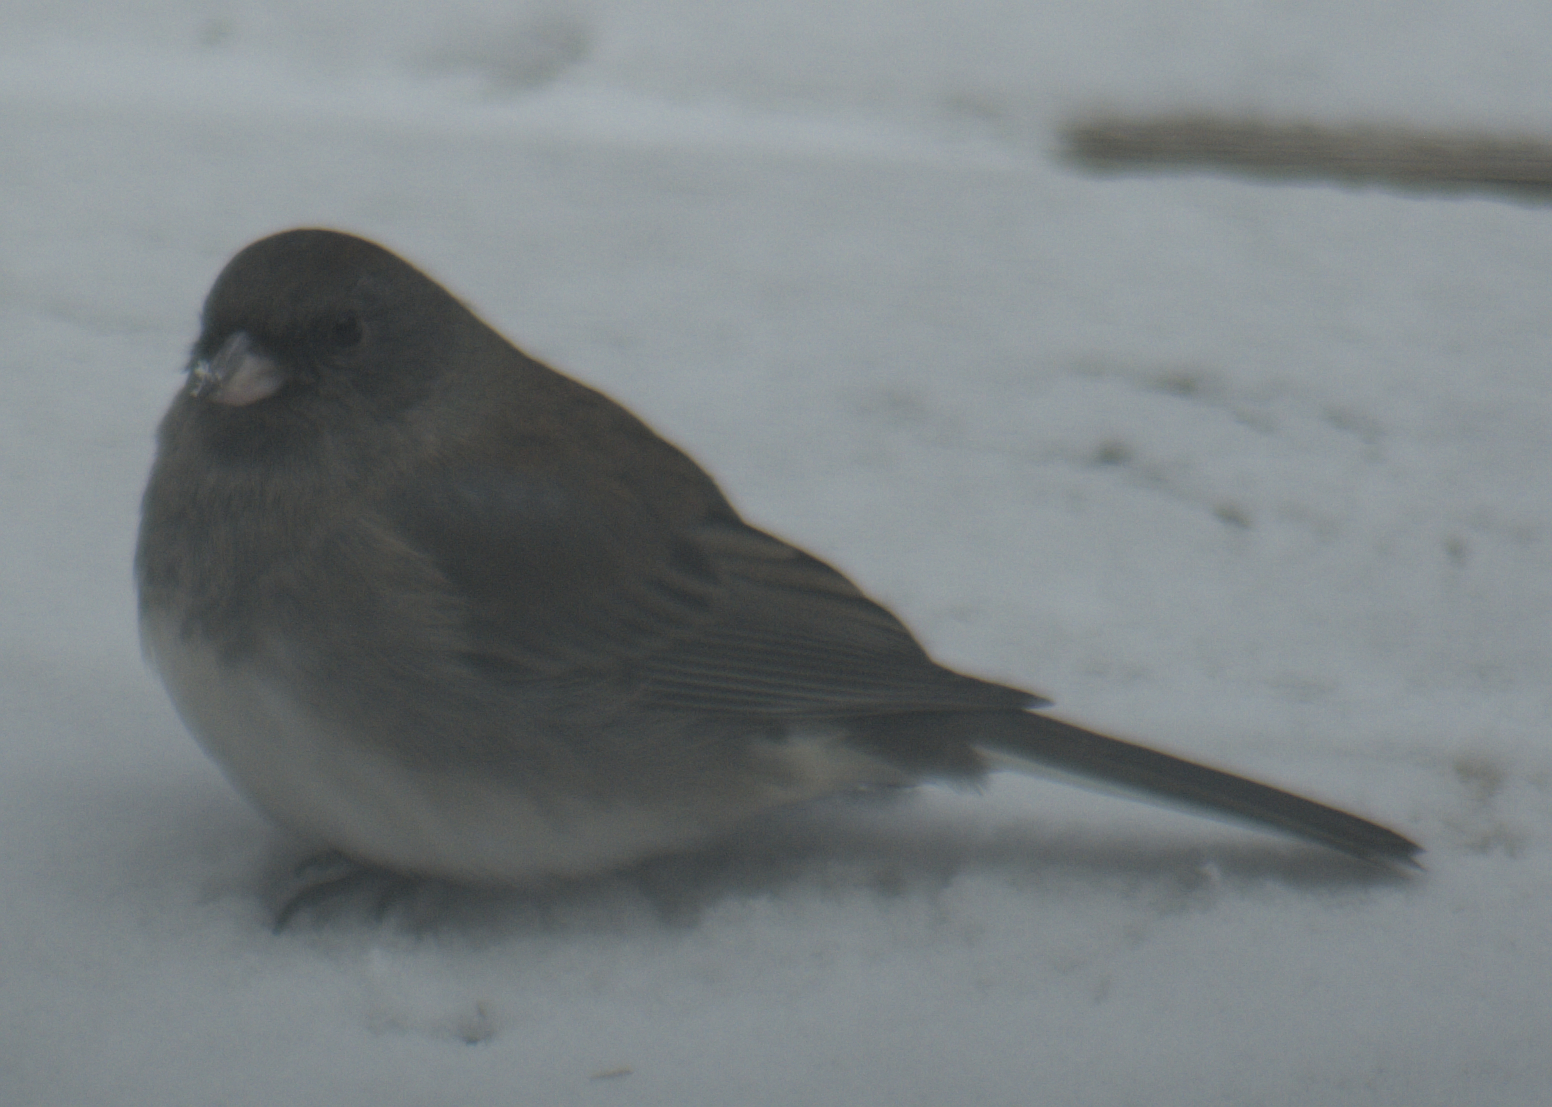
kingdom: Animalia
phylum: Chordata
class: Aves
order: Passeriformes
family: Passerellidae
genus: Junco
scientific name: Junco hyemalis
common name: Dark-eyed junco
